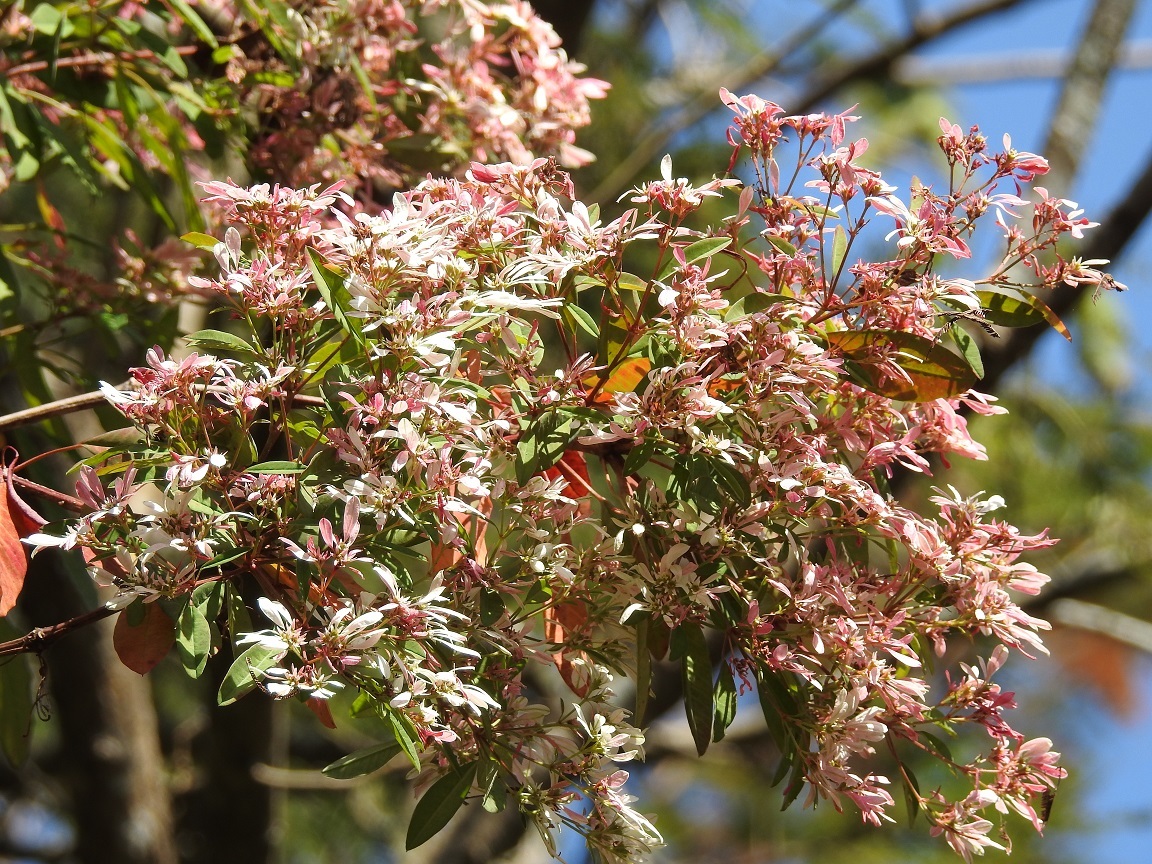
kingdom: Plantae
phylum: Tracheophyta
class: Magnoliopsida
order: Malpighiales
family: Euphorbiaceae
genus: Euphorbia
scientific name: Euphorbia leucocephala
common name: Pascuita
